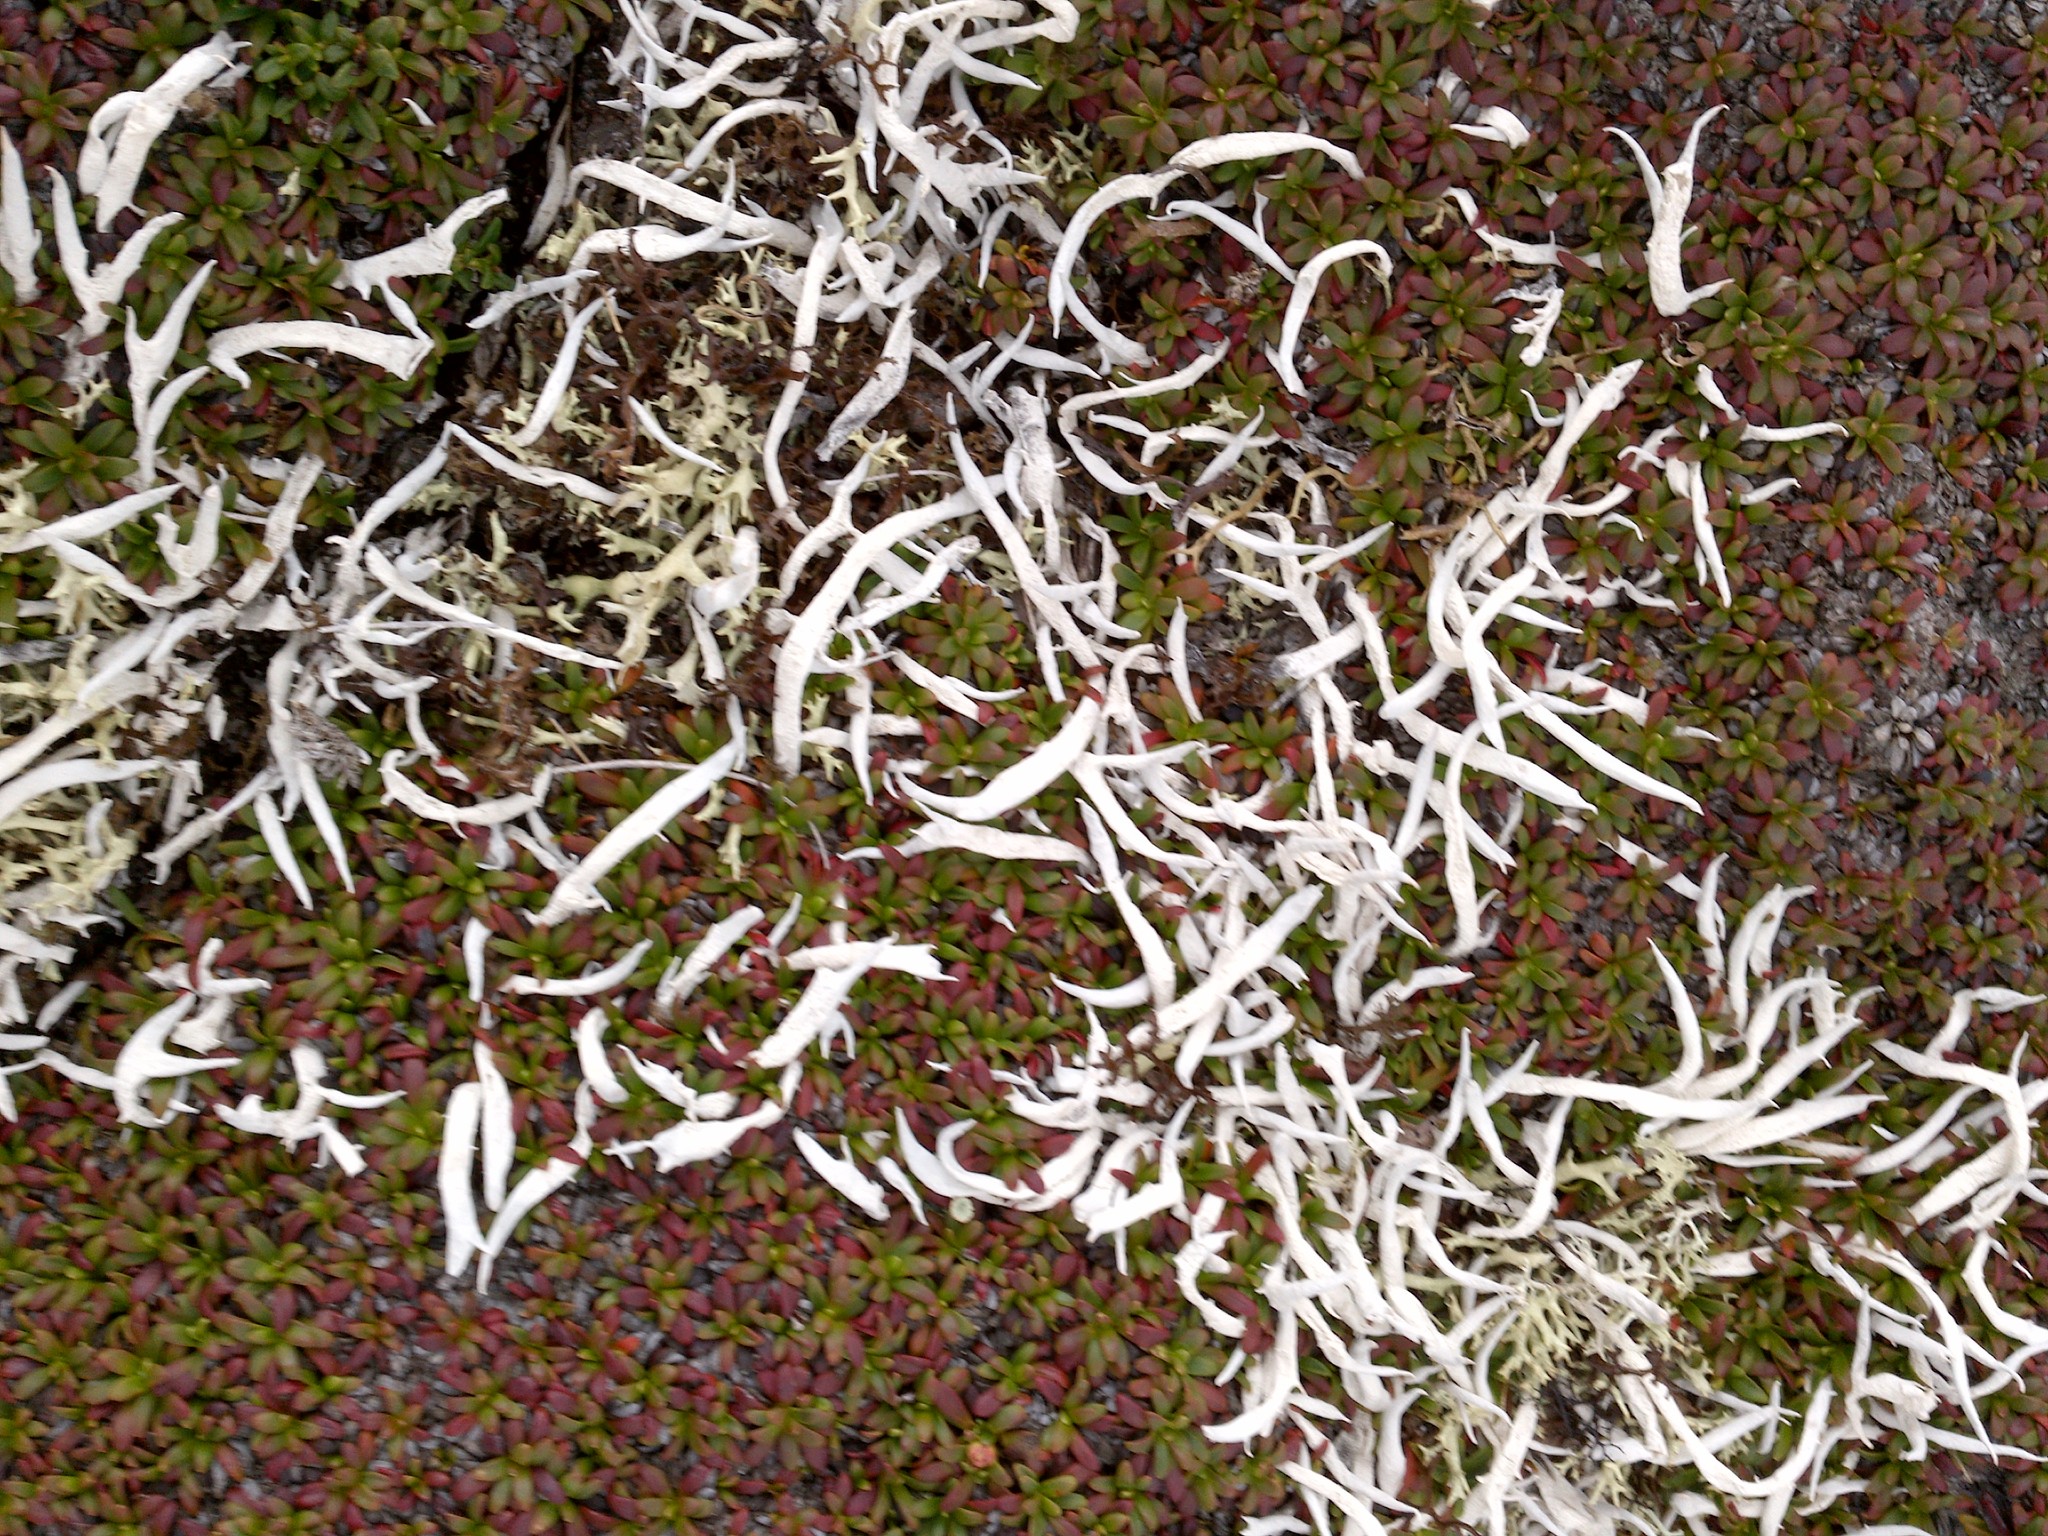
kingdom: Fungi
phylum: Ascomycota
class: Lecanoromycetes
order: Pertusariales
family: Icmadophilaceae
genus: Thamnolia
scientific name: Thamnolia vermicularis
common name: Whiteworm lichen
